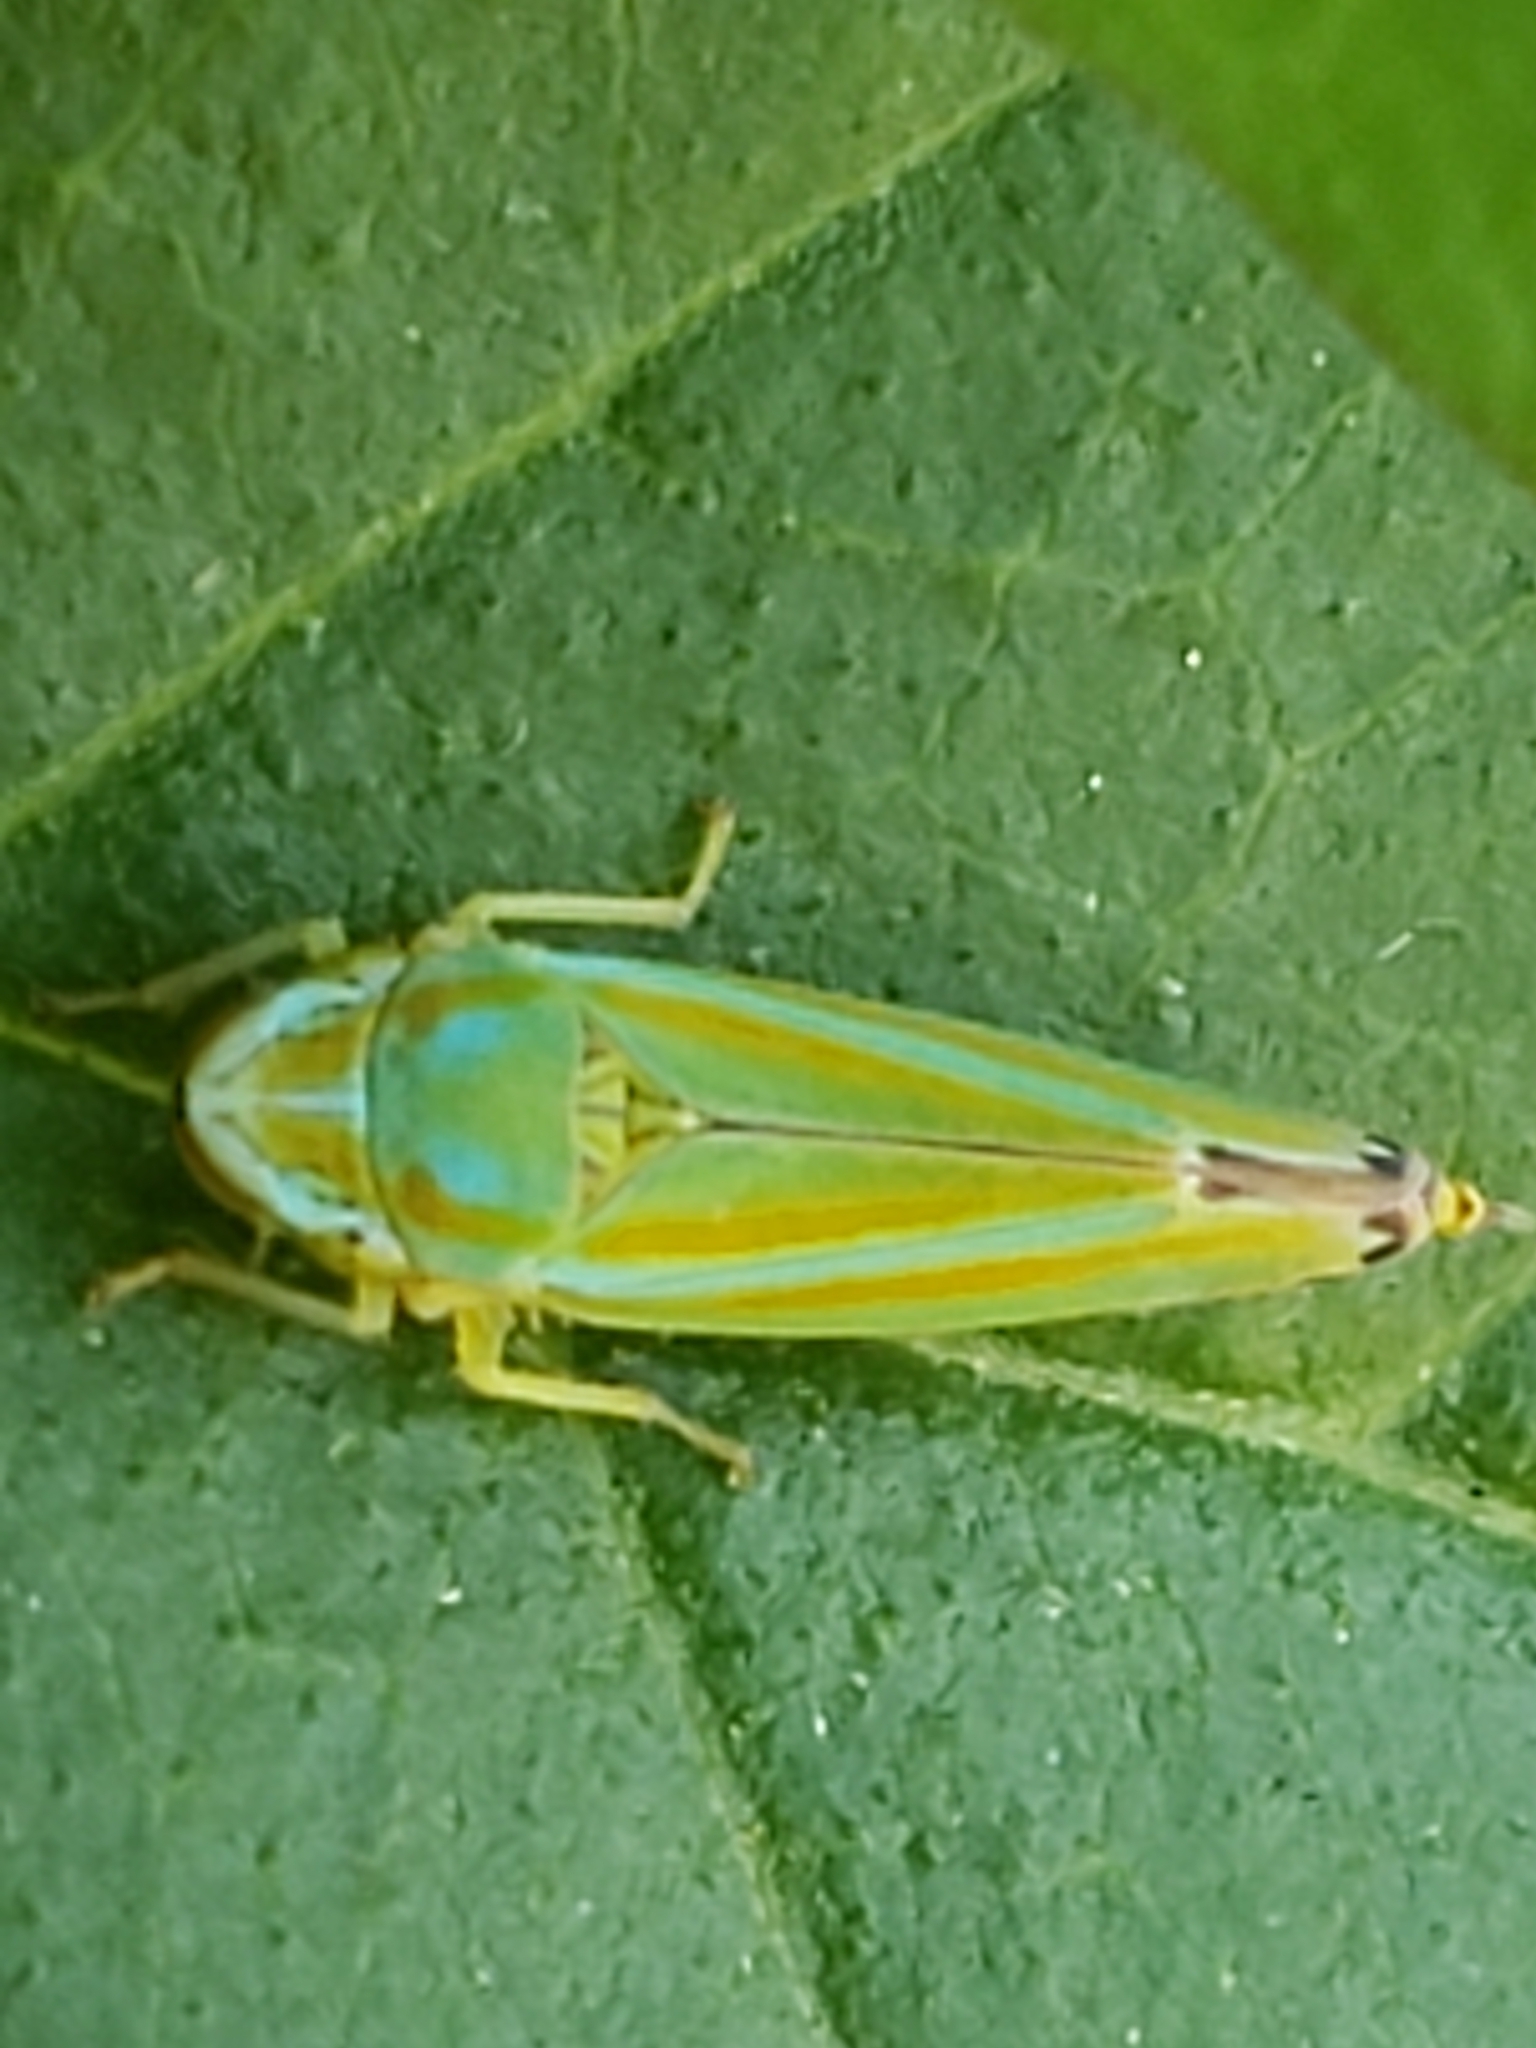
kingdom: Animalia
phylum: Arthropoda
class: Insecta
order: Hemiptera
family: Cicadellidae
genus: Graphocephala
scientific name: Graphocephala versuta
